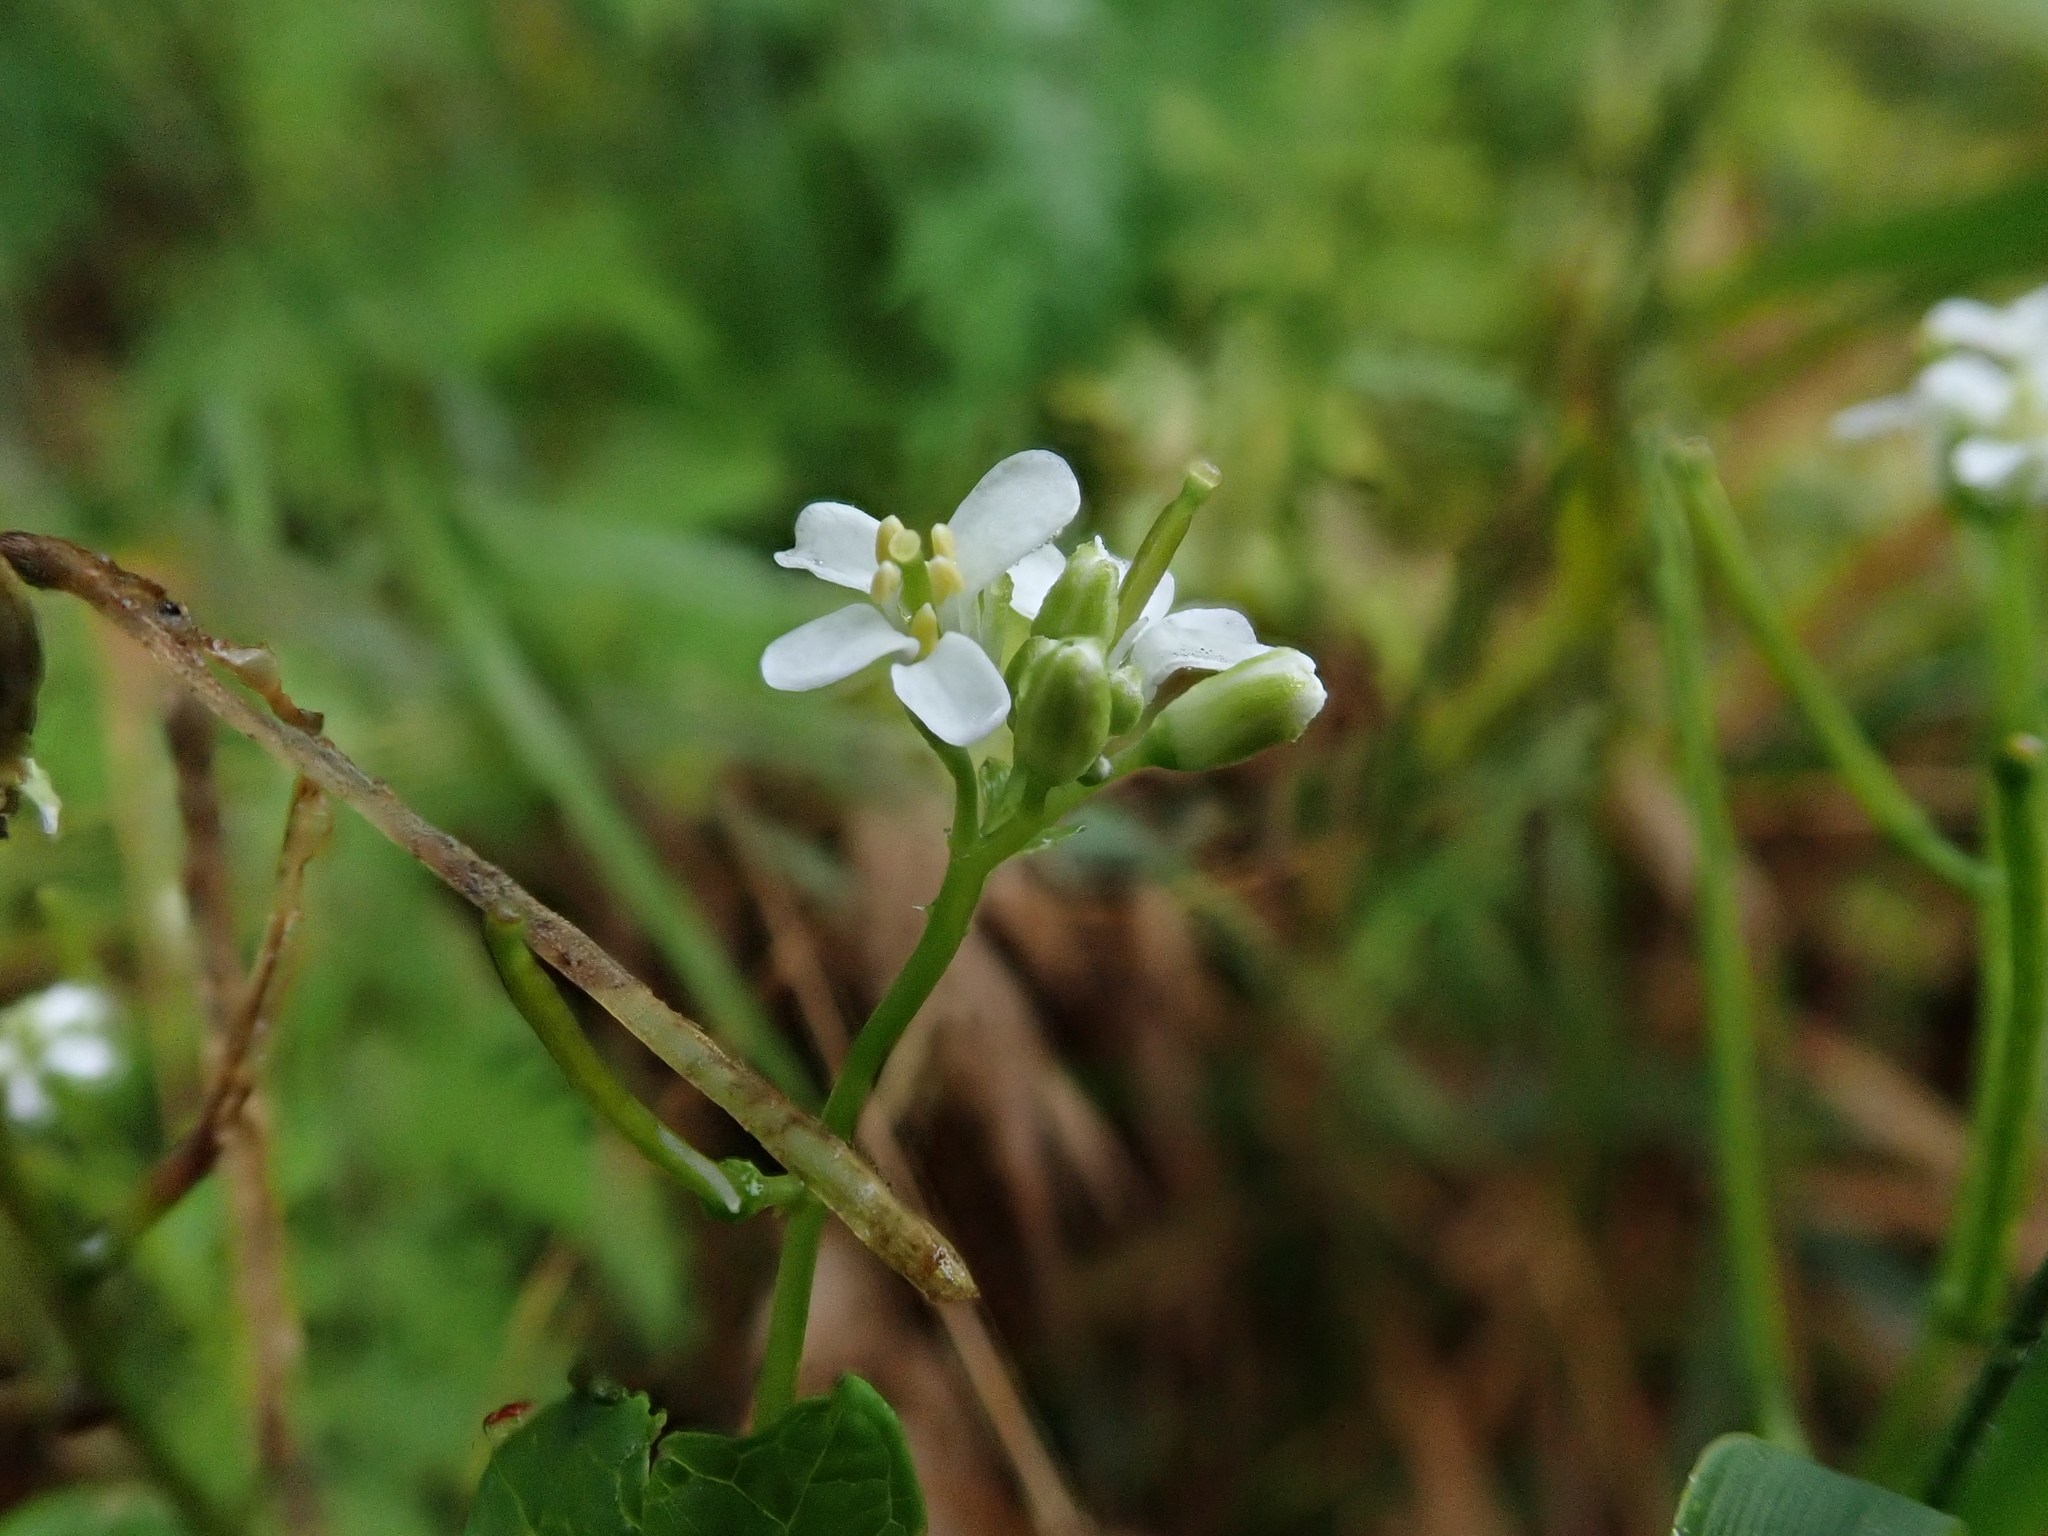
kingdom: Plantae
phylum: Tracheophyta
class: Magnoliopsida
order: Brassicales
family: Brassicaceae
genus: Alliaria
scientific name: Alliaria petiolata
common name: Garlic mustard
